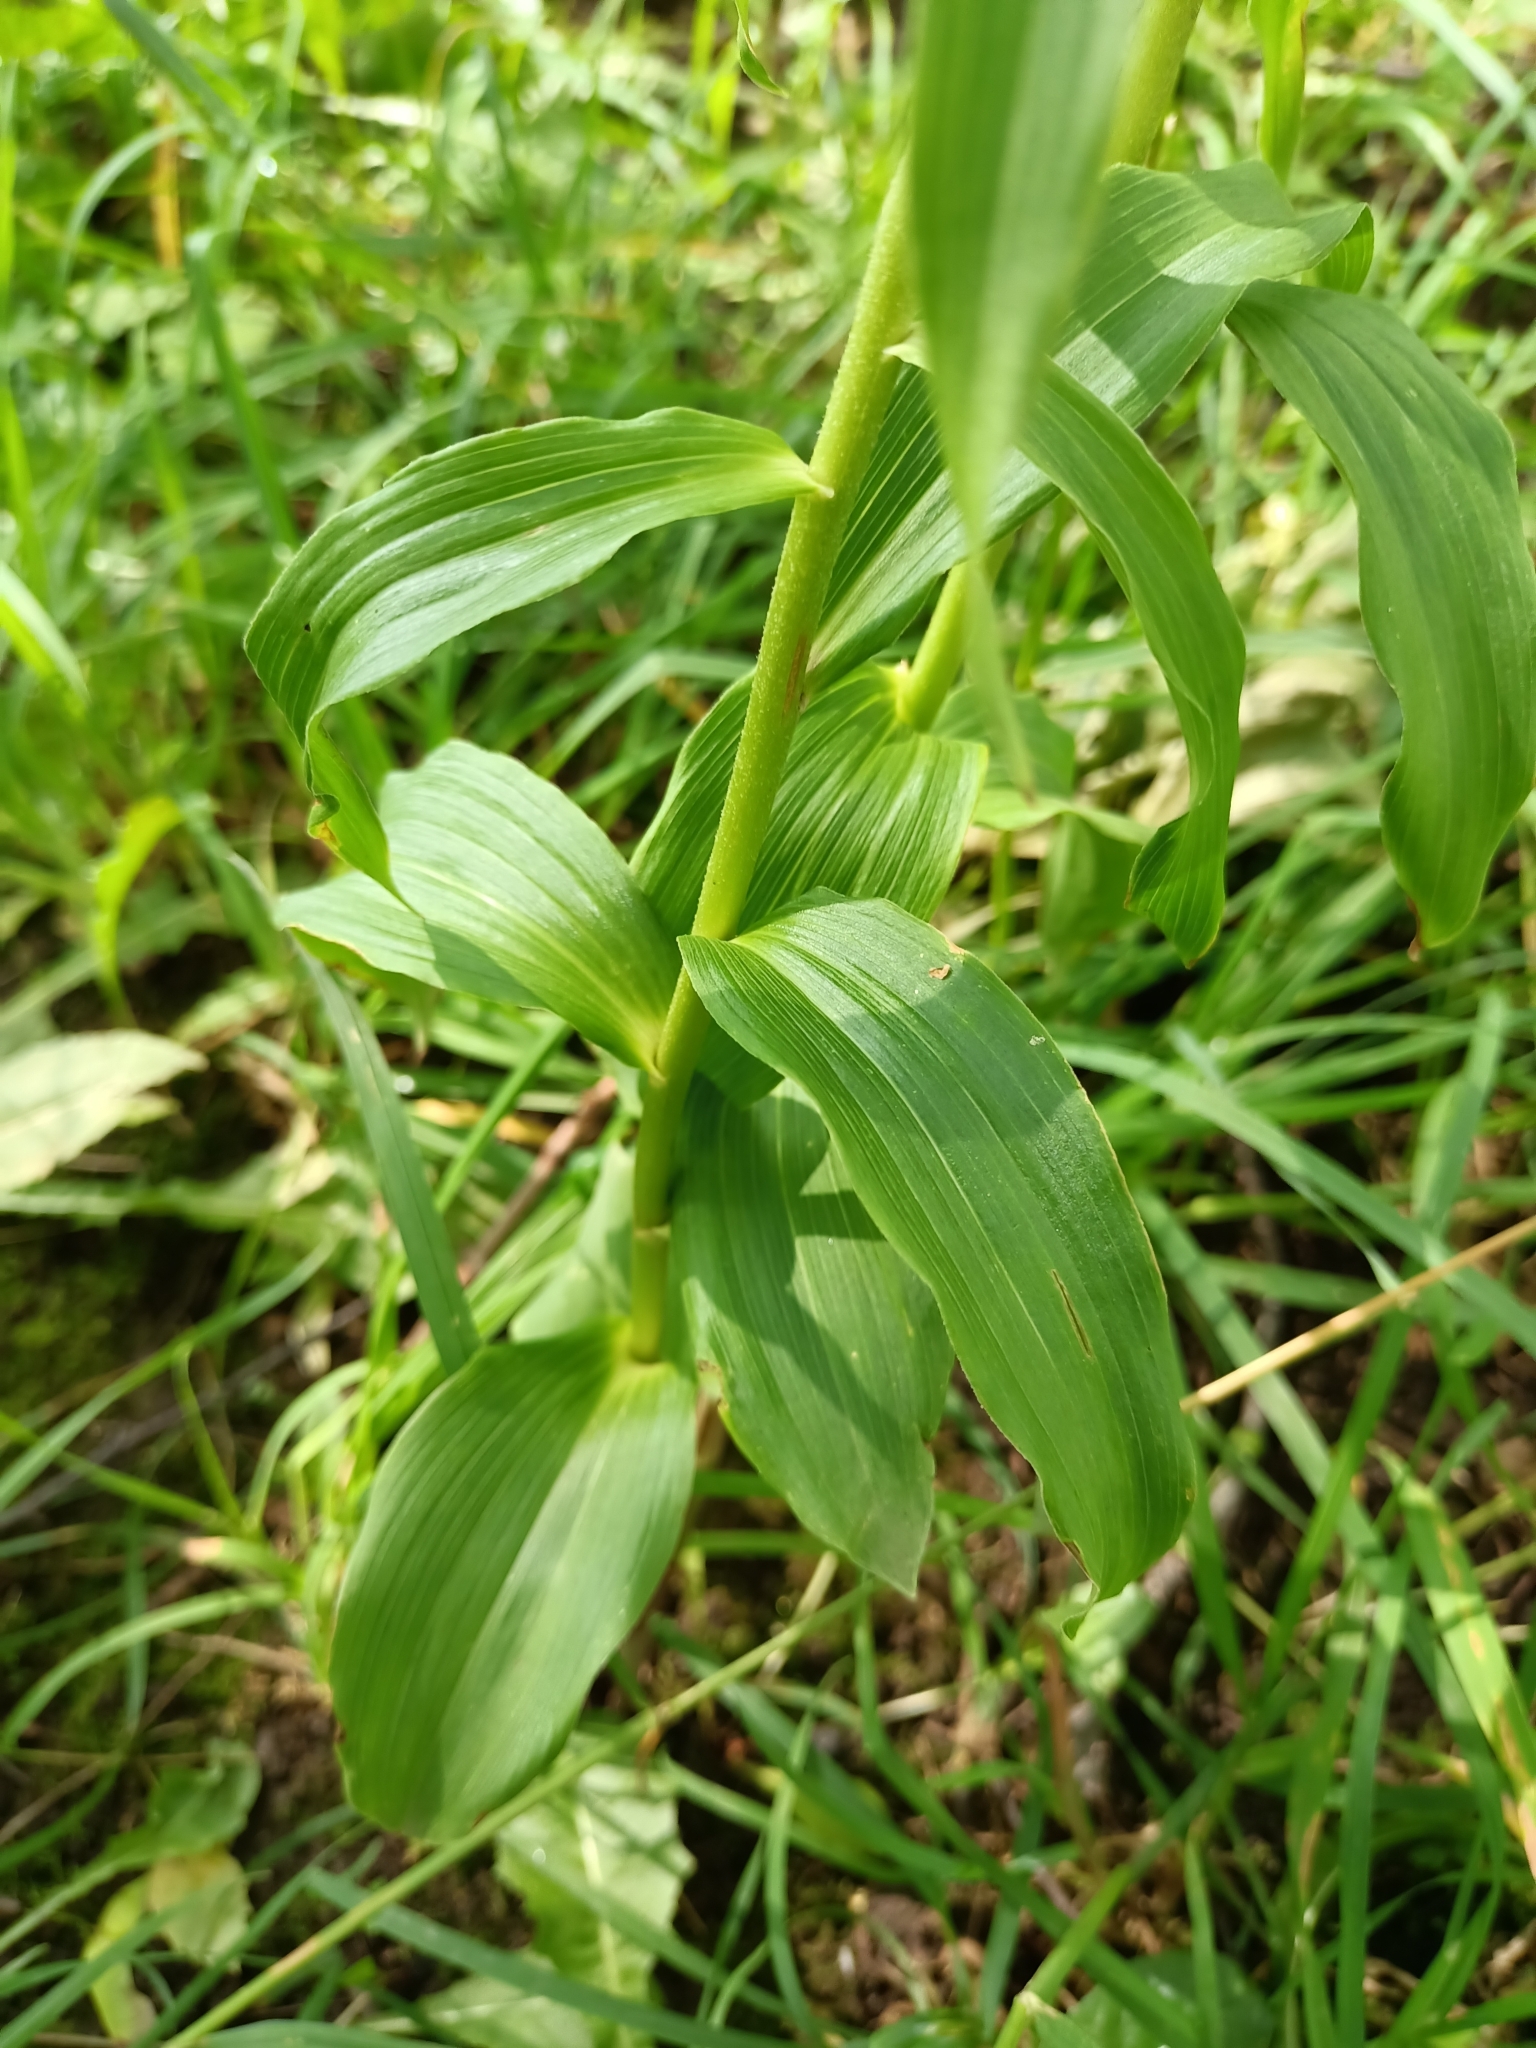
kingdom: Plantae
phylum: Tracheophyta
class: Liliopsida
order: Asparagales
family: Orchidaceae
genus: Epipactis
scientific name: Epipactis helleborine
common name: Broad-leaved helleborine
